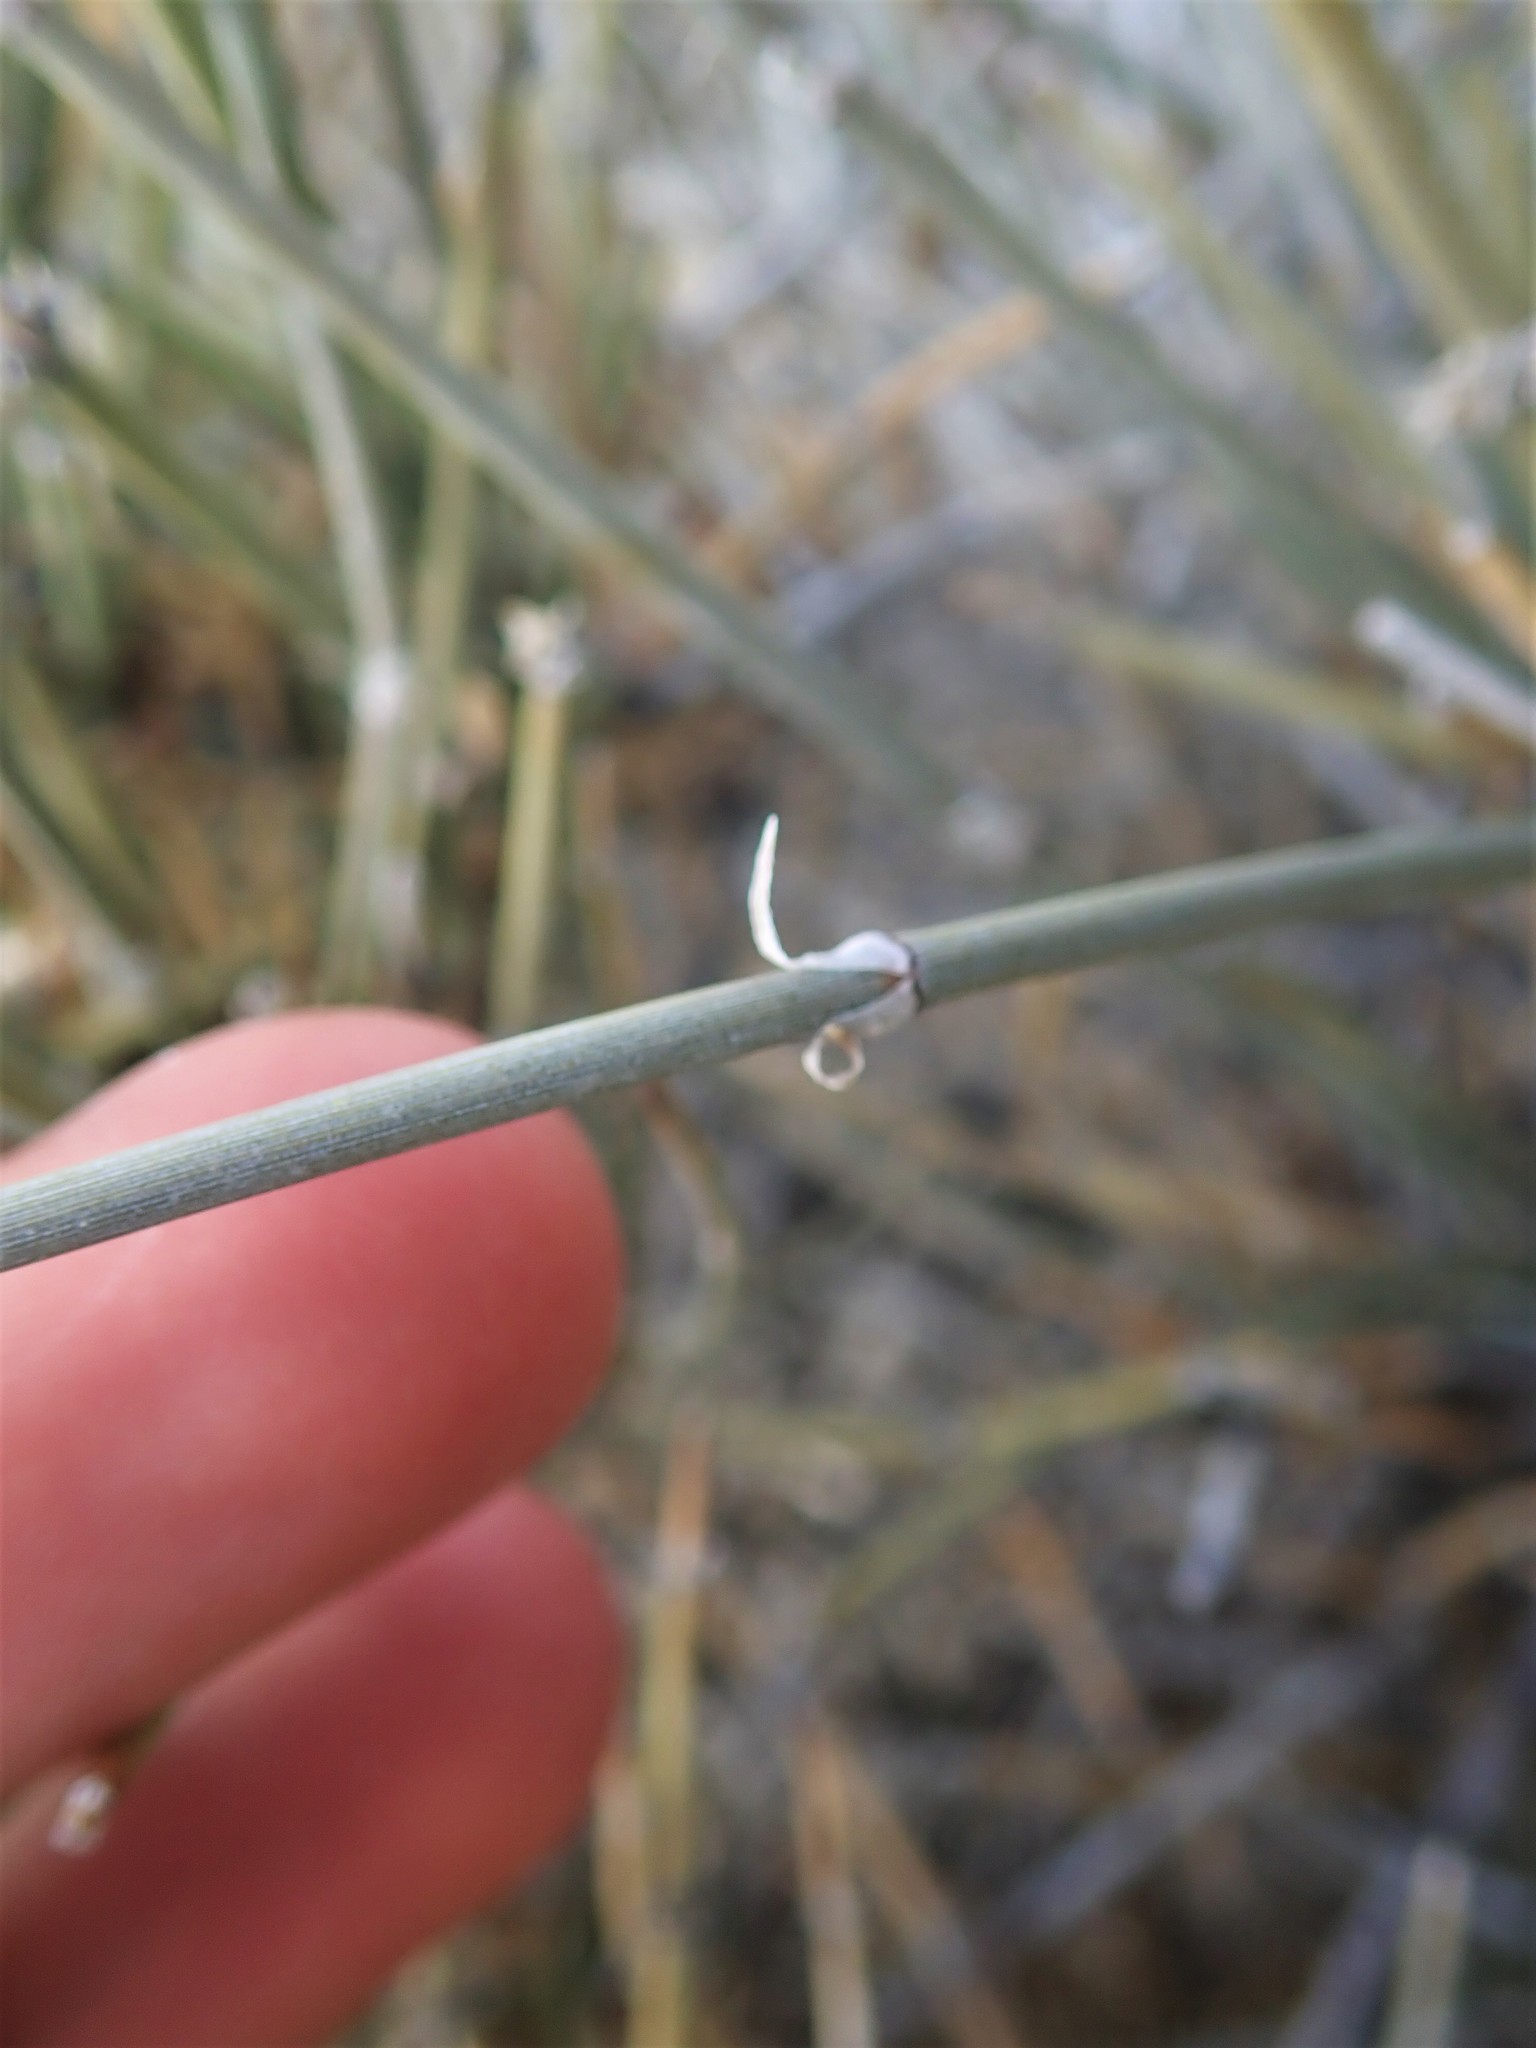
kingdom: Plantae
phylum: Tracheophyta
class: Gnetopsida
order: Ephedrales
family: Ephedraceae
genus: Ephedra
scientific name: Ephedra nevadensis
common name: Gray ephedra
